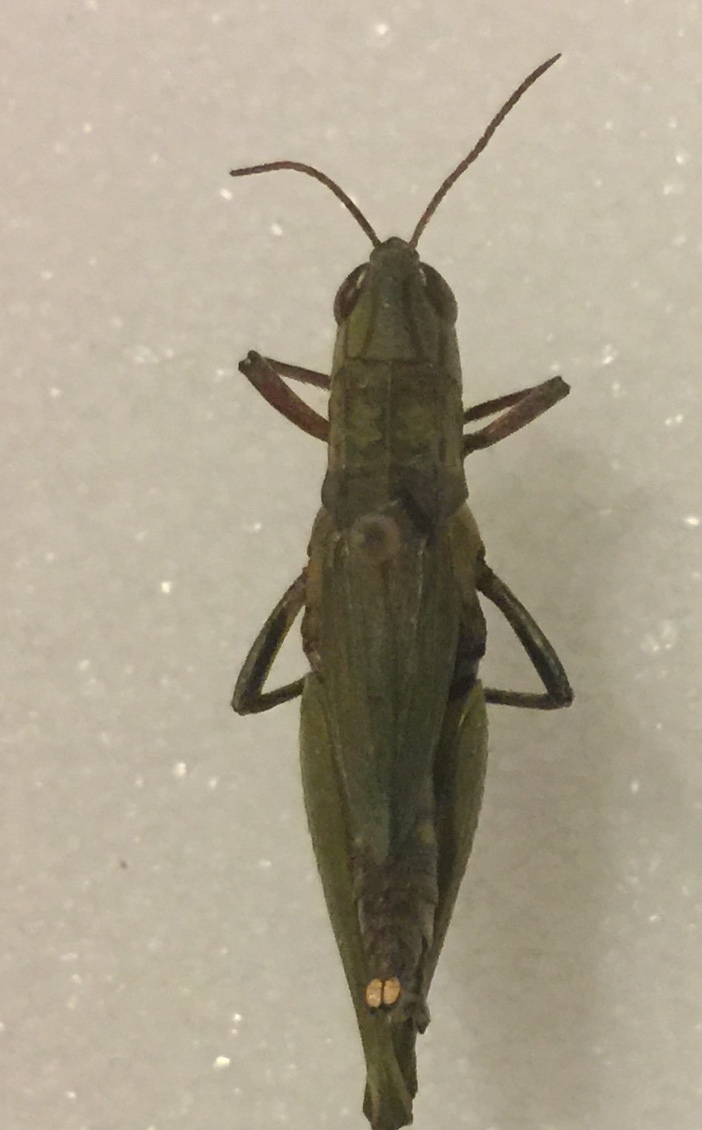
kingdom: Animalia
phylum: Arthropoda
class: Insecta
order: Orthoptera
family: Acrididae
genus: Dichromorpha
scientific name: Dichromorpha viridis
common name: Short-winged green grasshopper
